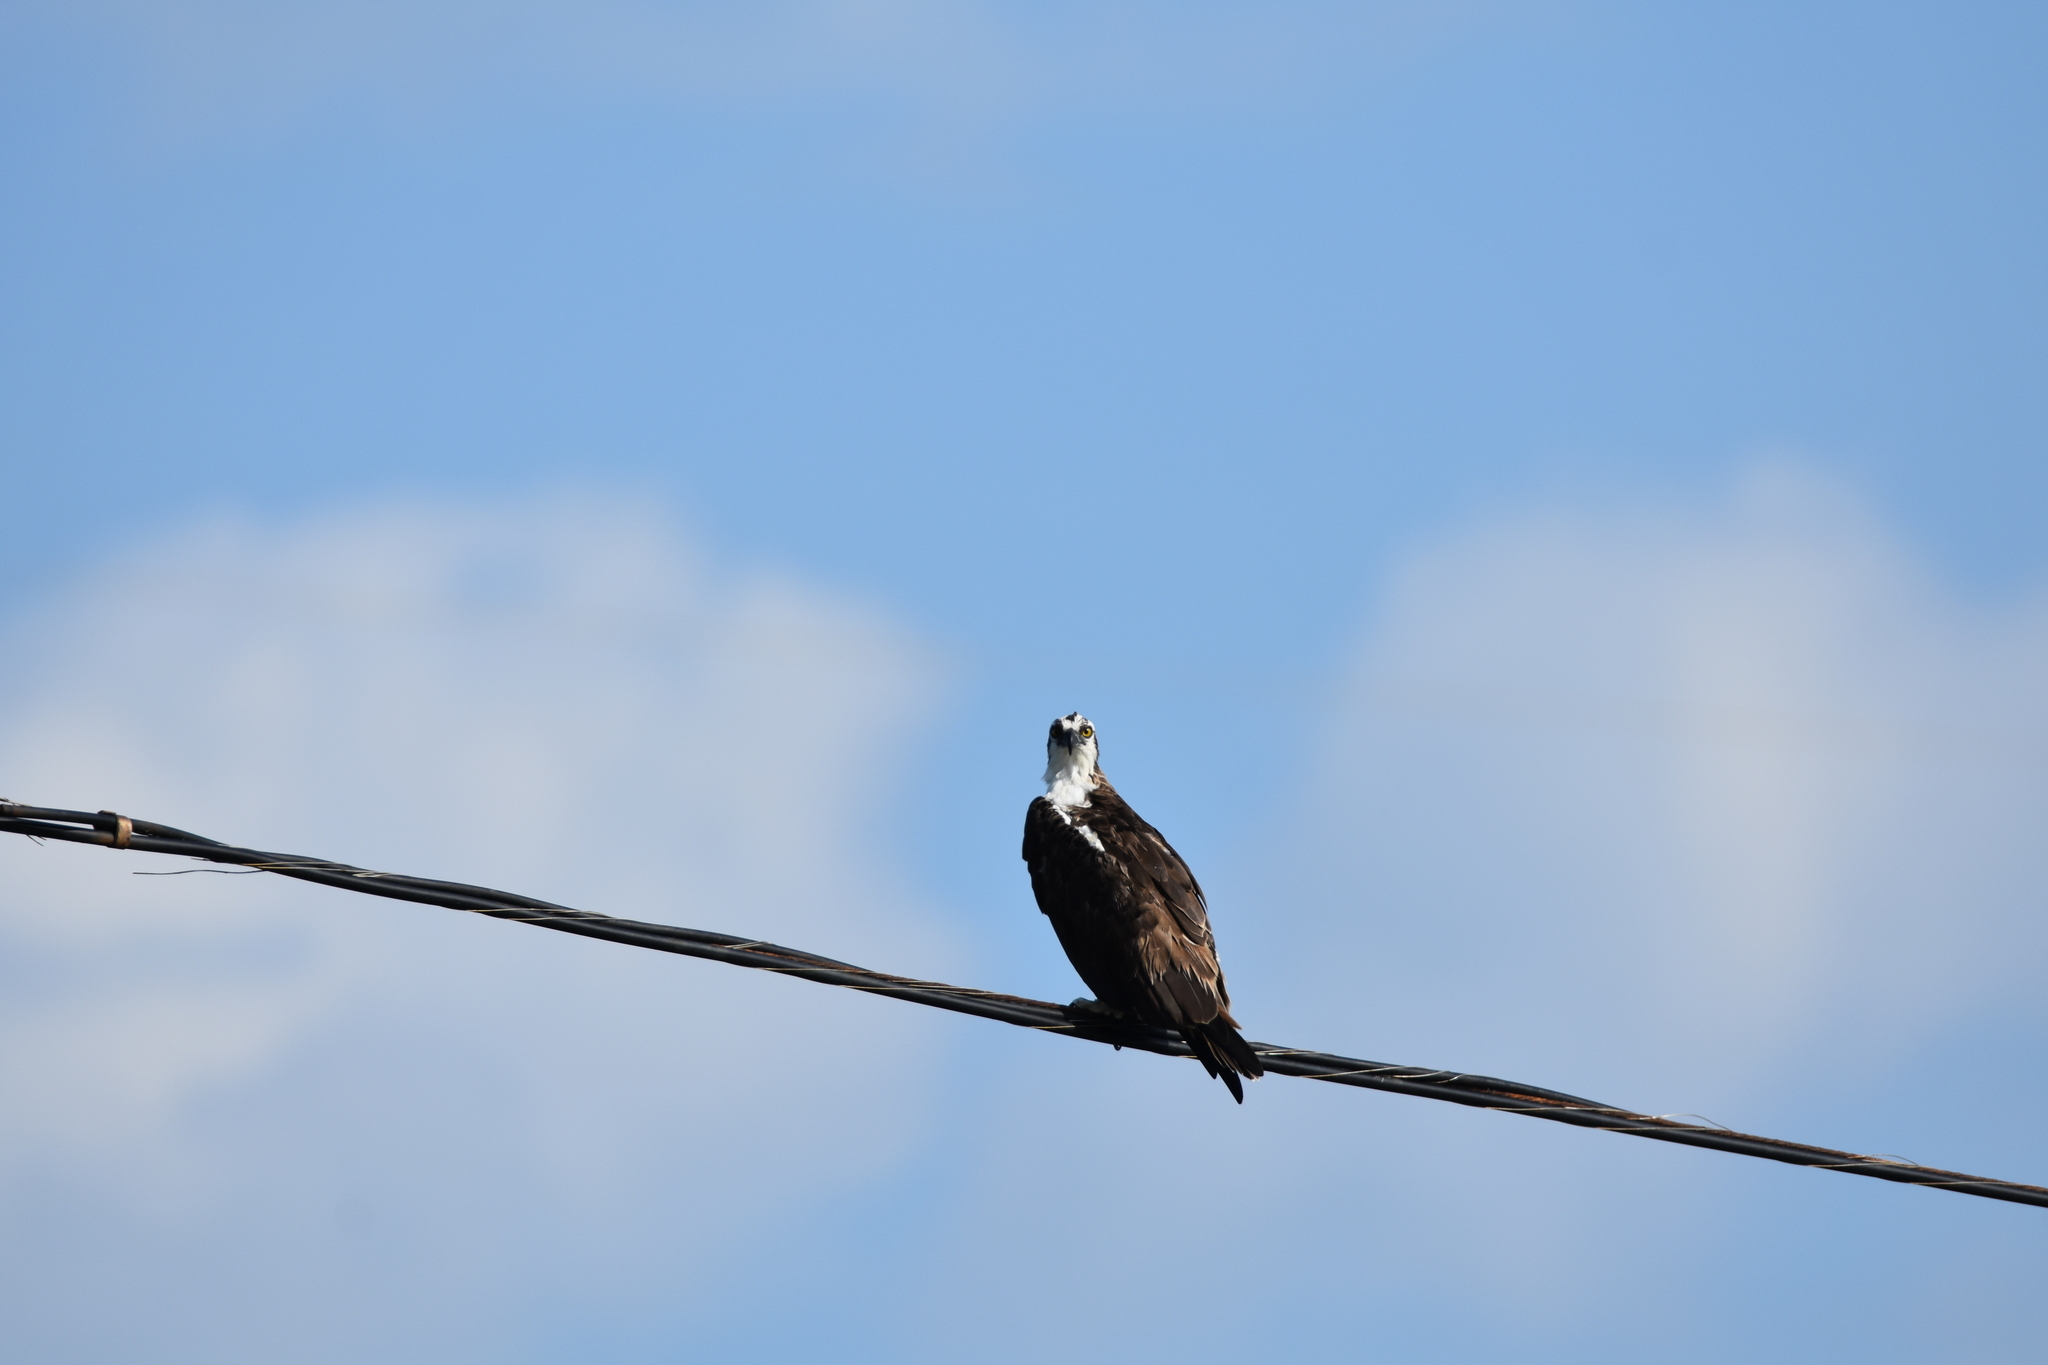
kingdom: Animalia
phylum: Chordata
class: Aves
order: Accipitriformes
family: Pandionidae
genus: Pandion
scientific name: Pandion haliaetus
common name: Osprey
